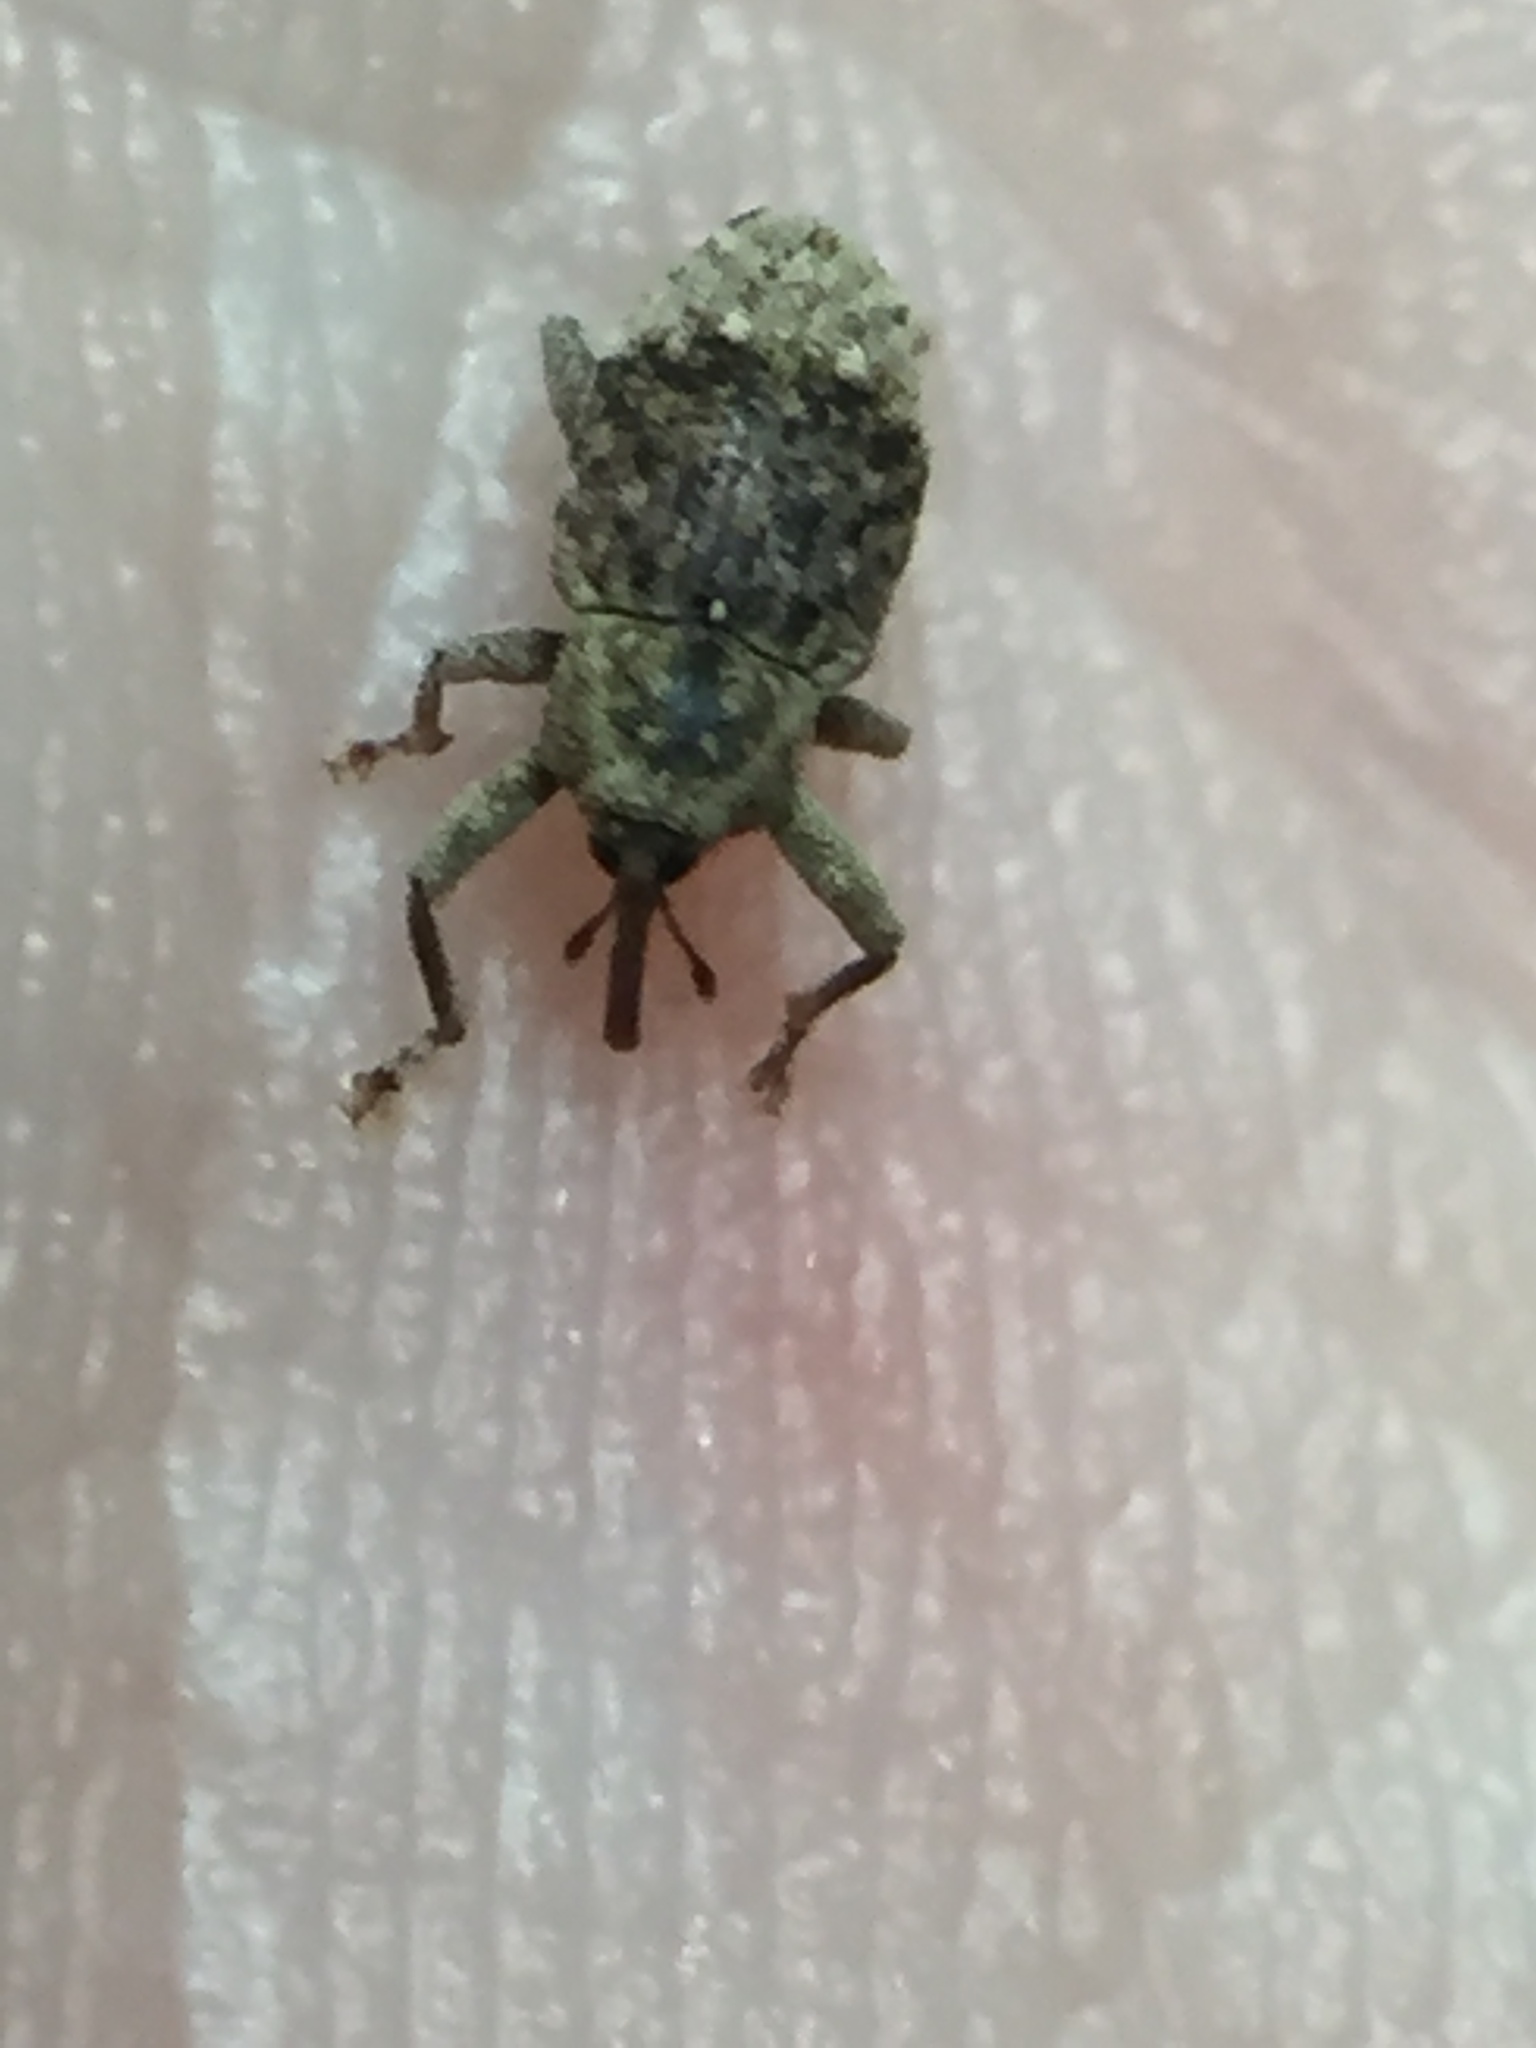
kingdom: Animalia
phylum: Arthropoda
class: Insecta
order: Coleoptera
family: Curculionidae
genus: Emplesis
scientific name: Emplesis bifoveata
